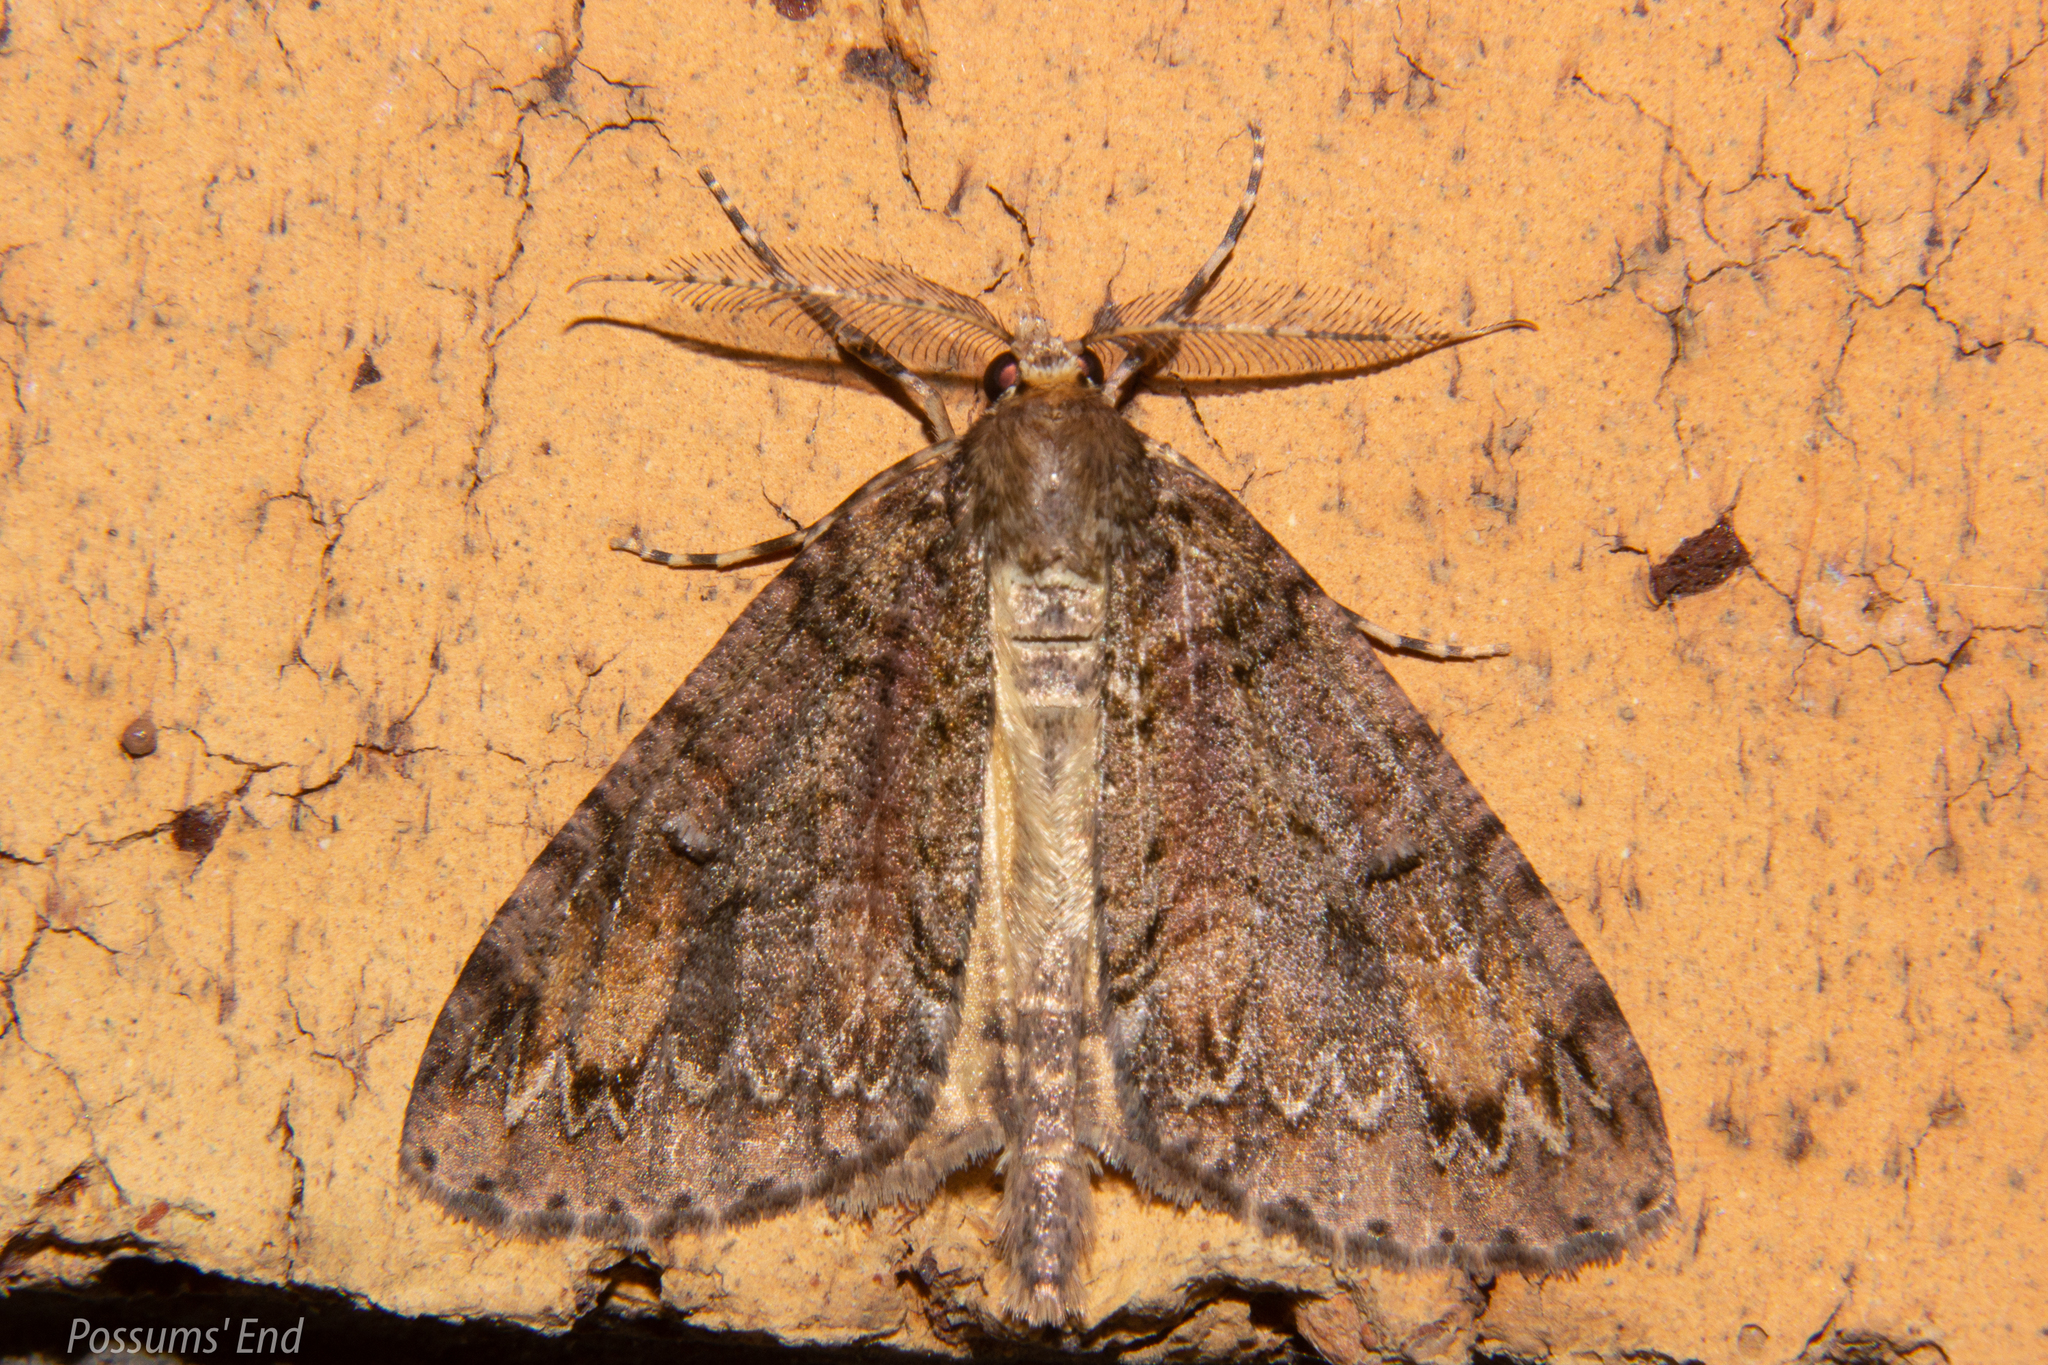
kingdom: Animalia
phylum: Arthropoda
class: Insecta
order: Lepidoptera
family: Geometridae
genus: Pseudocoremia
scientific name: Pseudocoremia suavis
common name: Common forest looper
